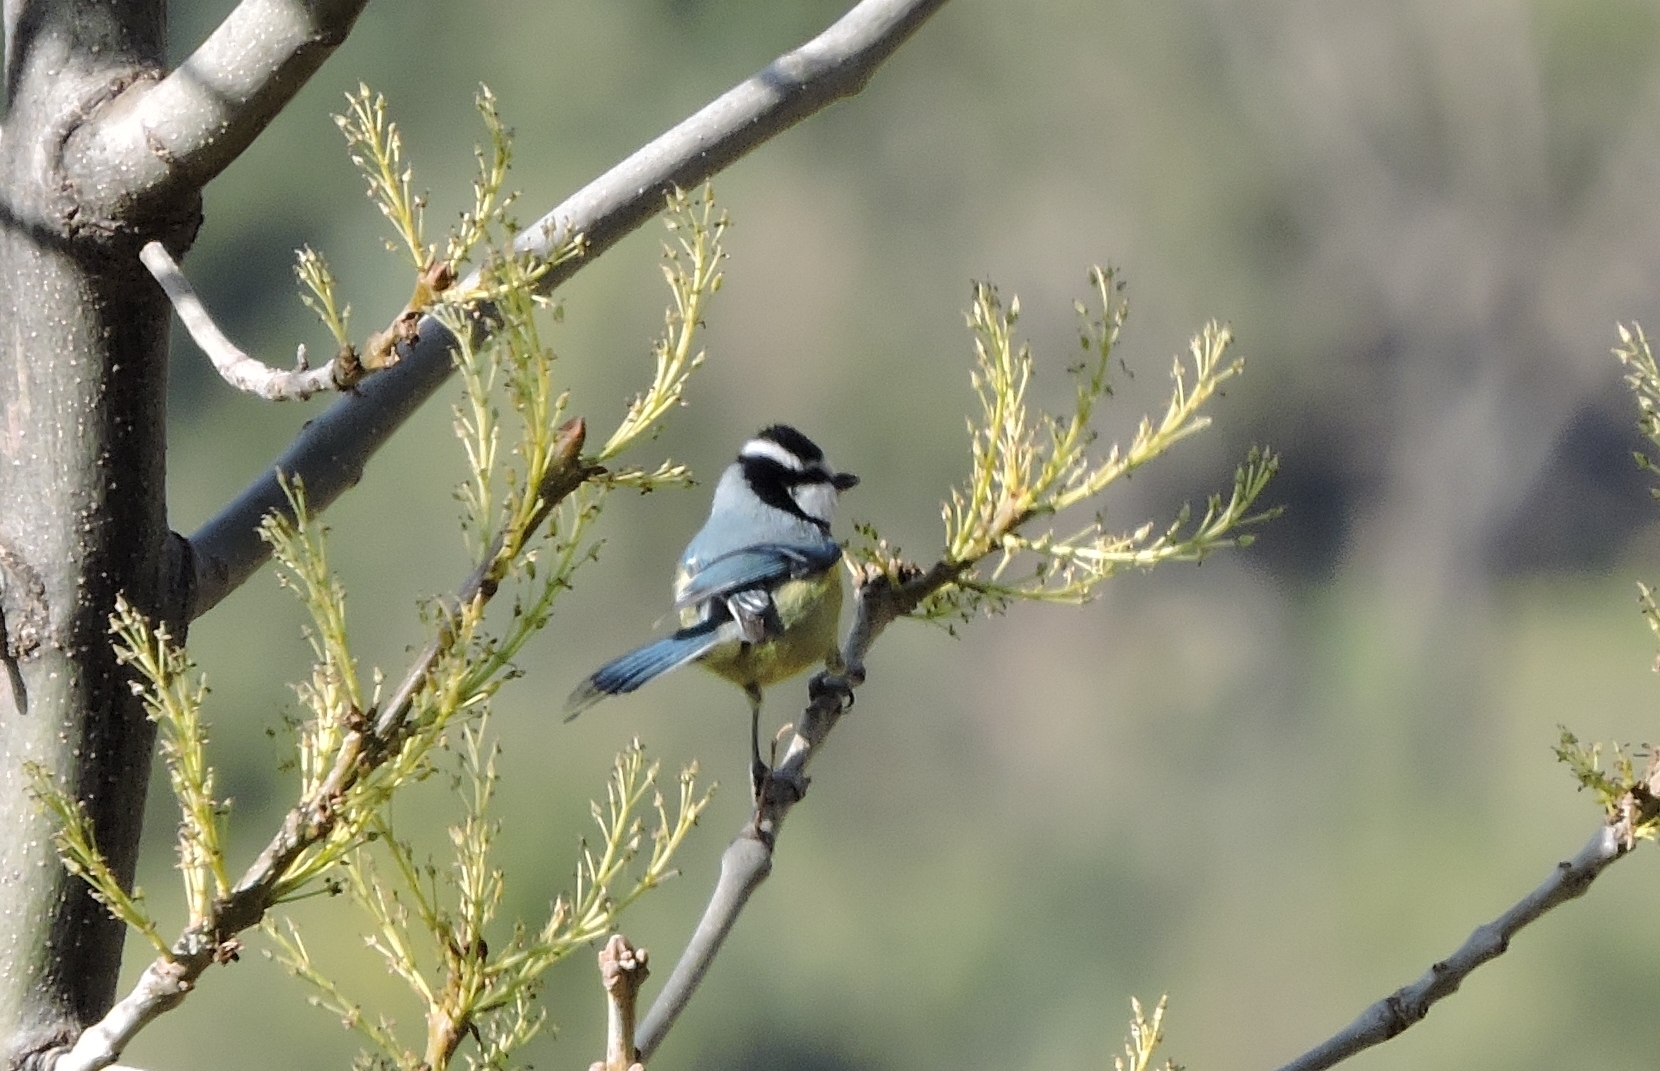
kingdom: Animalia
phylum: Chordata
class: Aves
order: Passeriformes
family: Paridae
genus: Cyanistes
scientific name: Cyanistes teneriffae
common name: African blue tit
